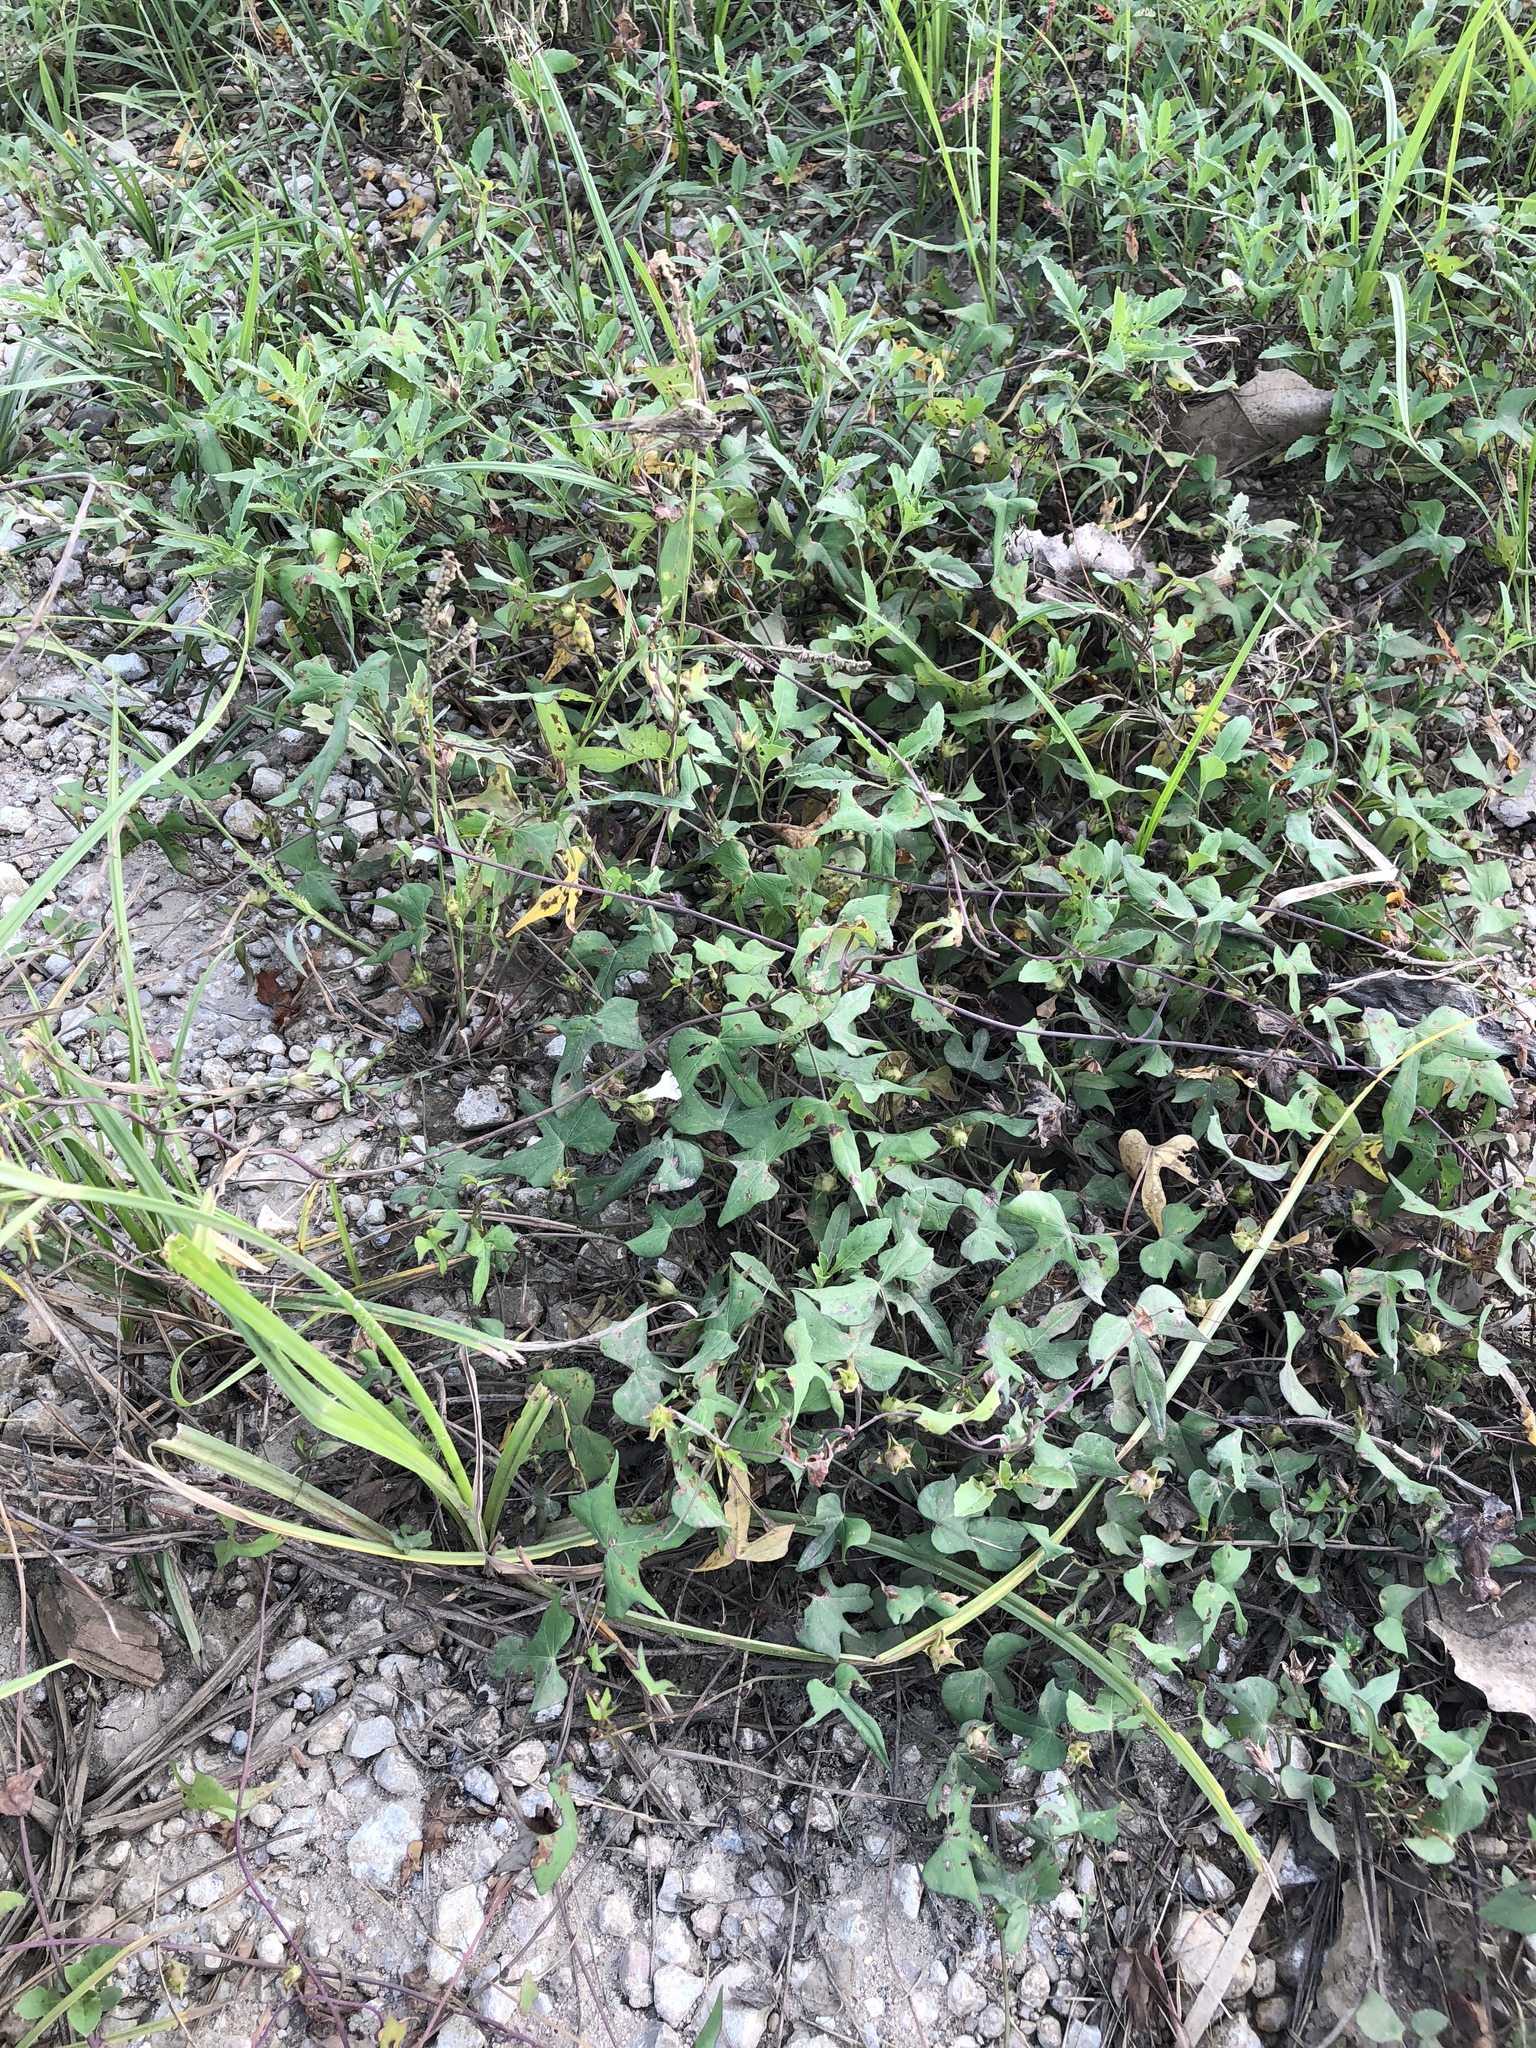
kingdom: Plantae
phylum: Tracheophyta
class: Magnoliopsida
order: Solanales
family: Convolvulaceae
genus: Ipomoea
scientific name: Ipomoea lacunosa
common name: White morning-glory
